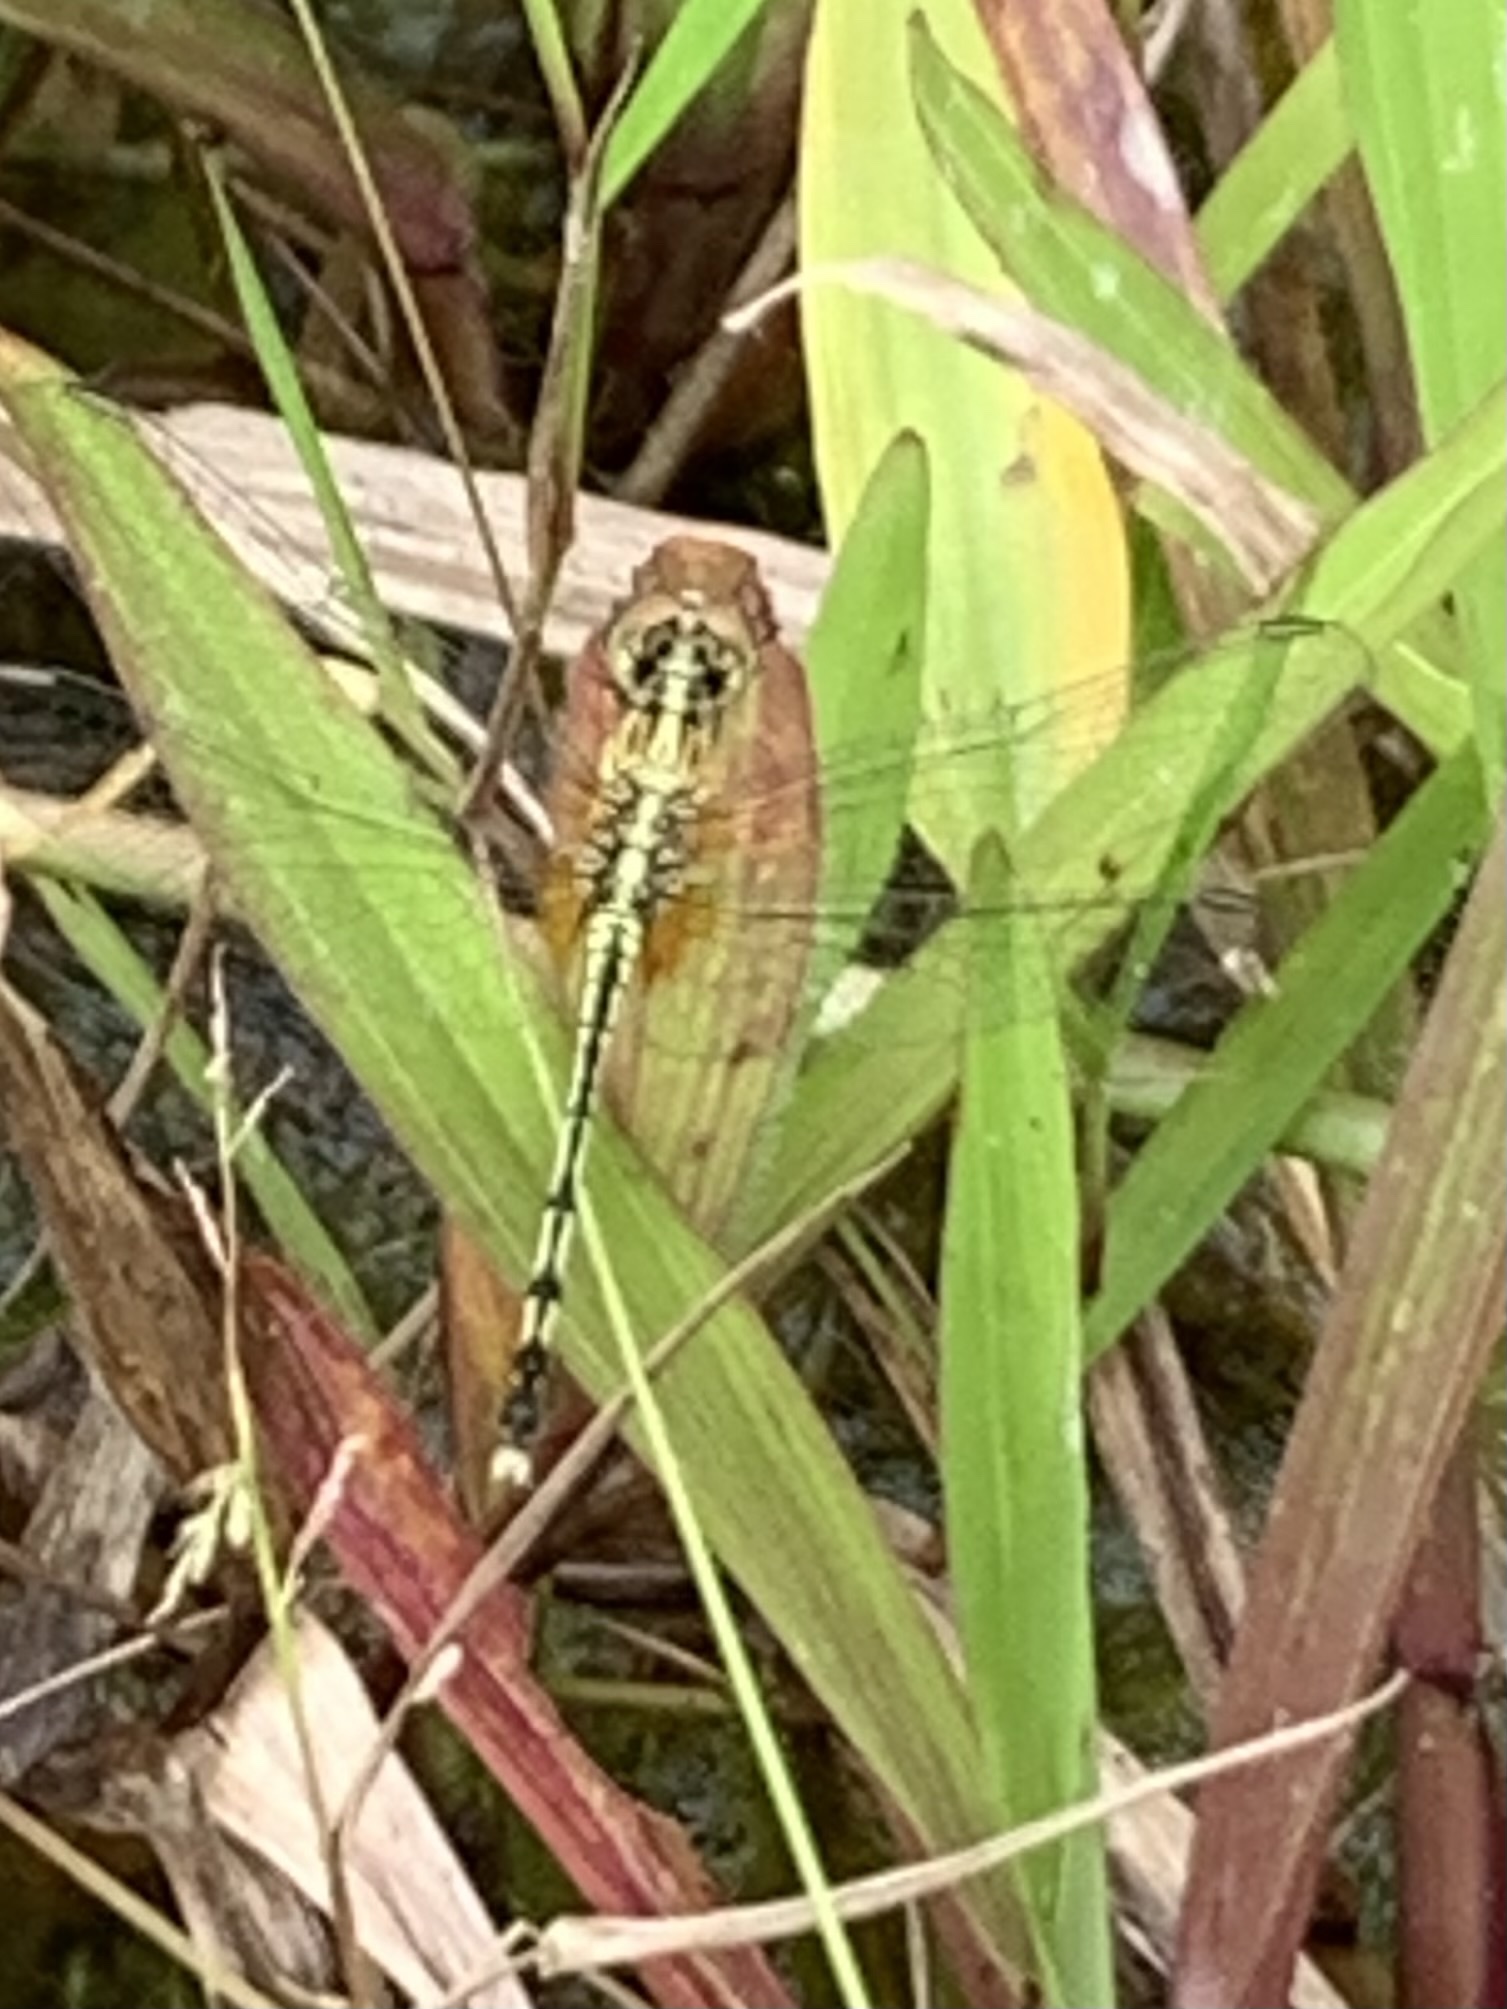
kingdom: Animalia
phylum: Arthropoda
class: Insecta
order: Odonata
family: Libellulidae
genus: Diplacodes
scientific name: Diplacodes trivialis
